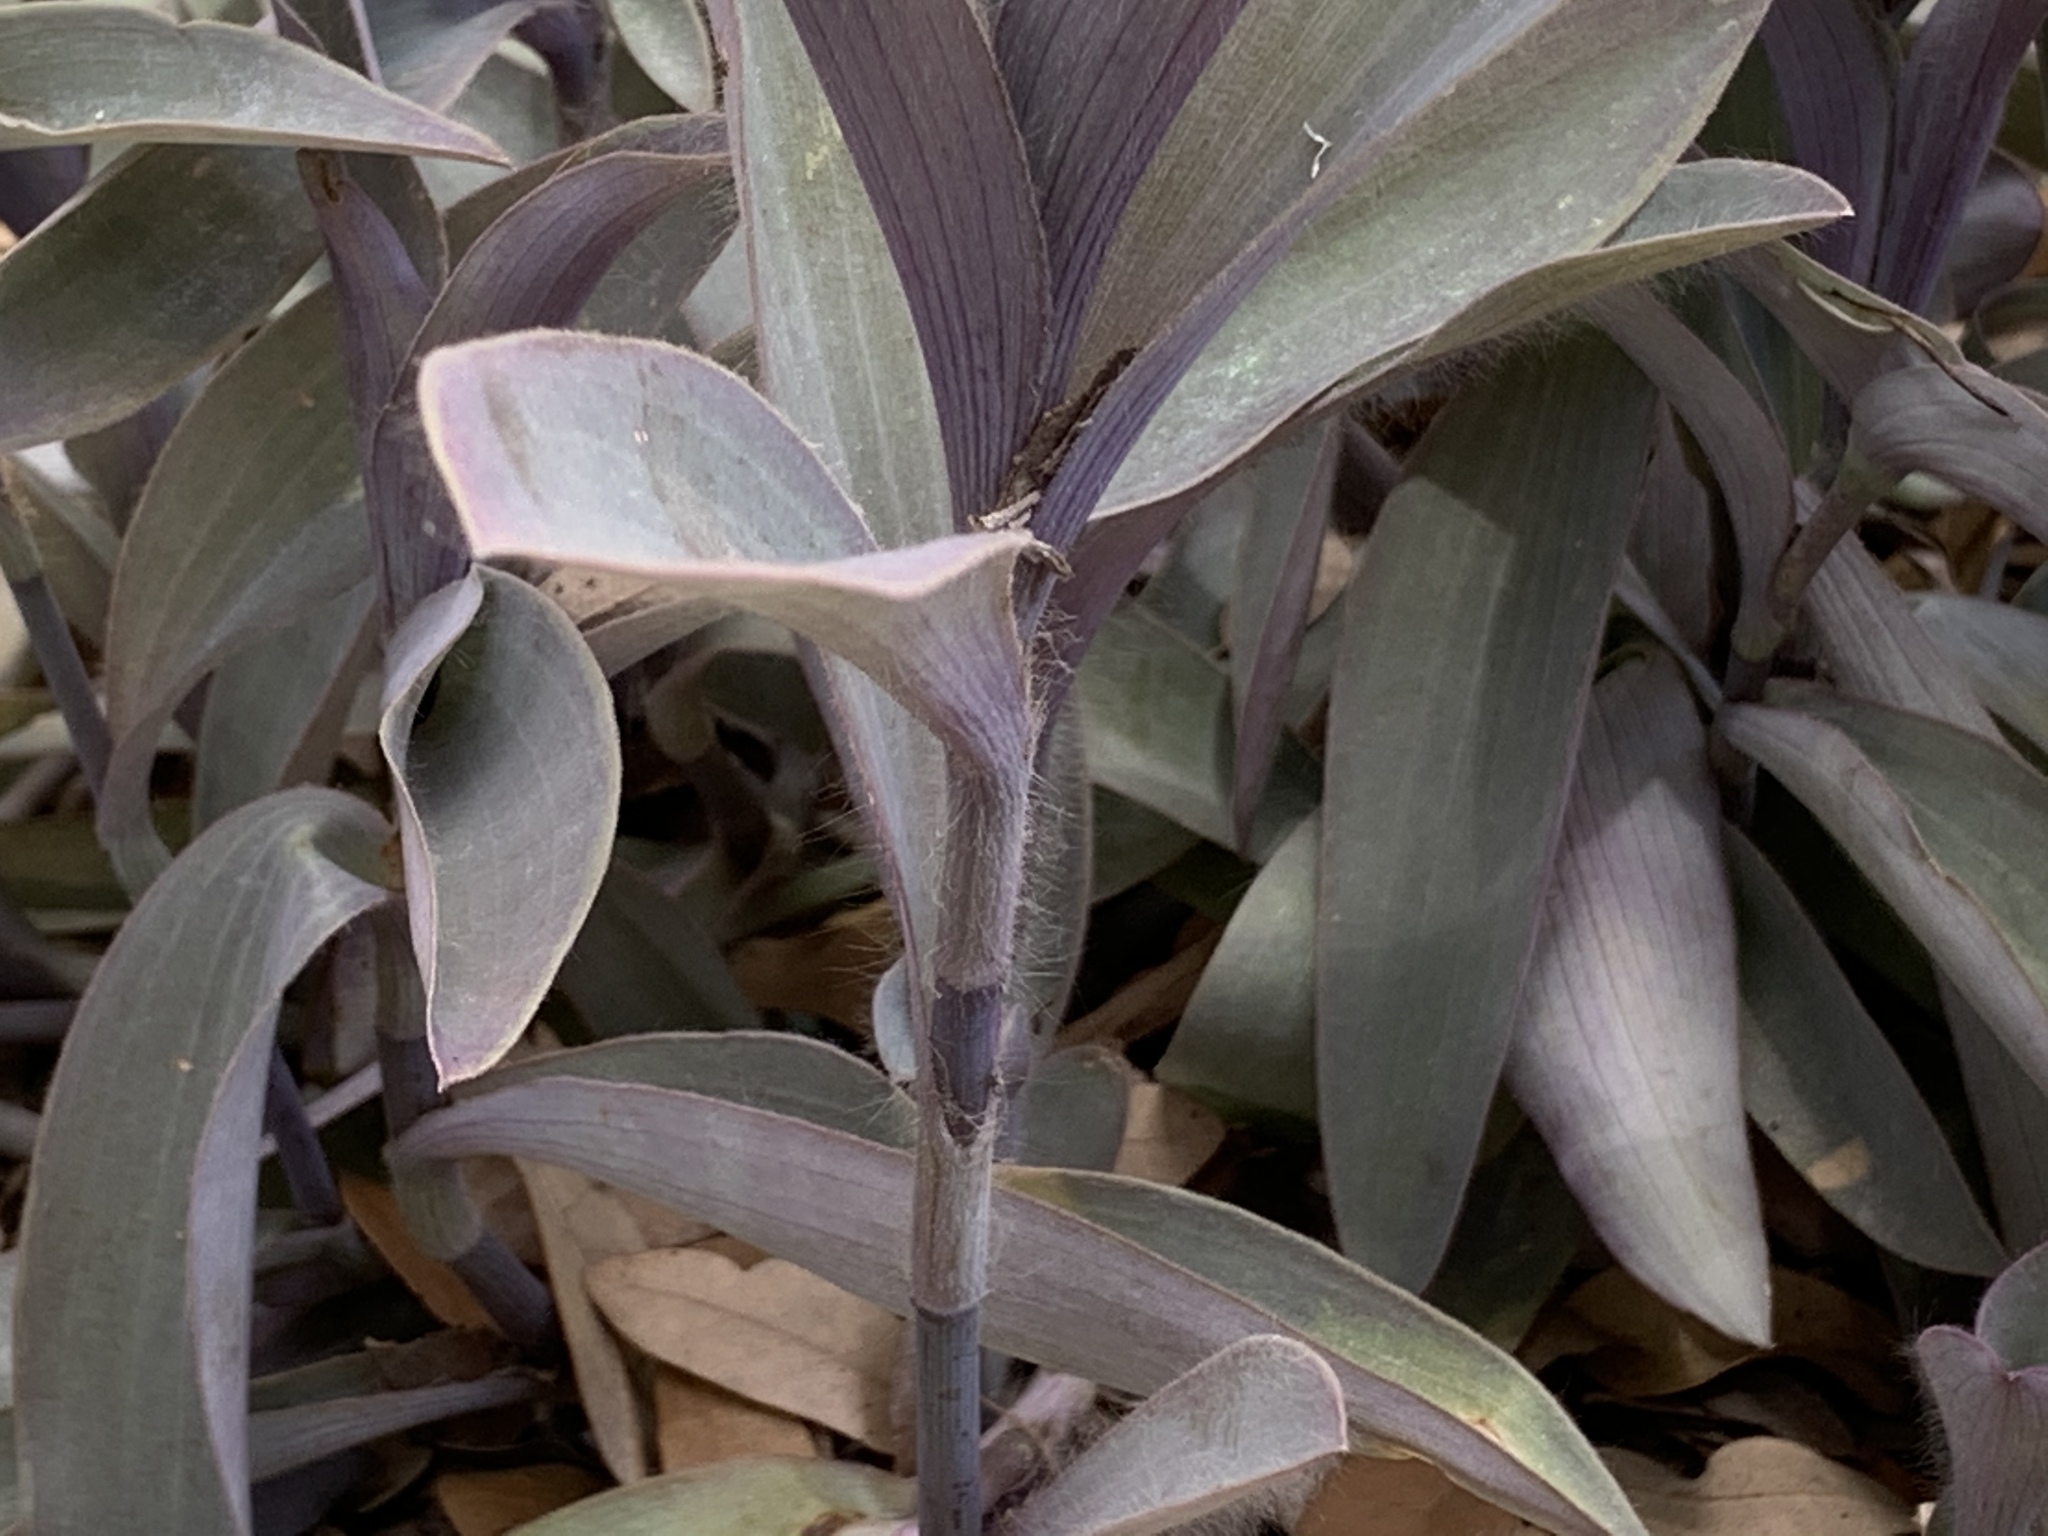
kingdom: Plantae
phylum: Tracheophyta
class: Liliopsida
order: Commelinales
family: Commelinaceae
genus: Tradescantia
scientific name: Tradescantia pallida
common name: Purpleheart
